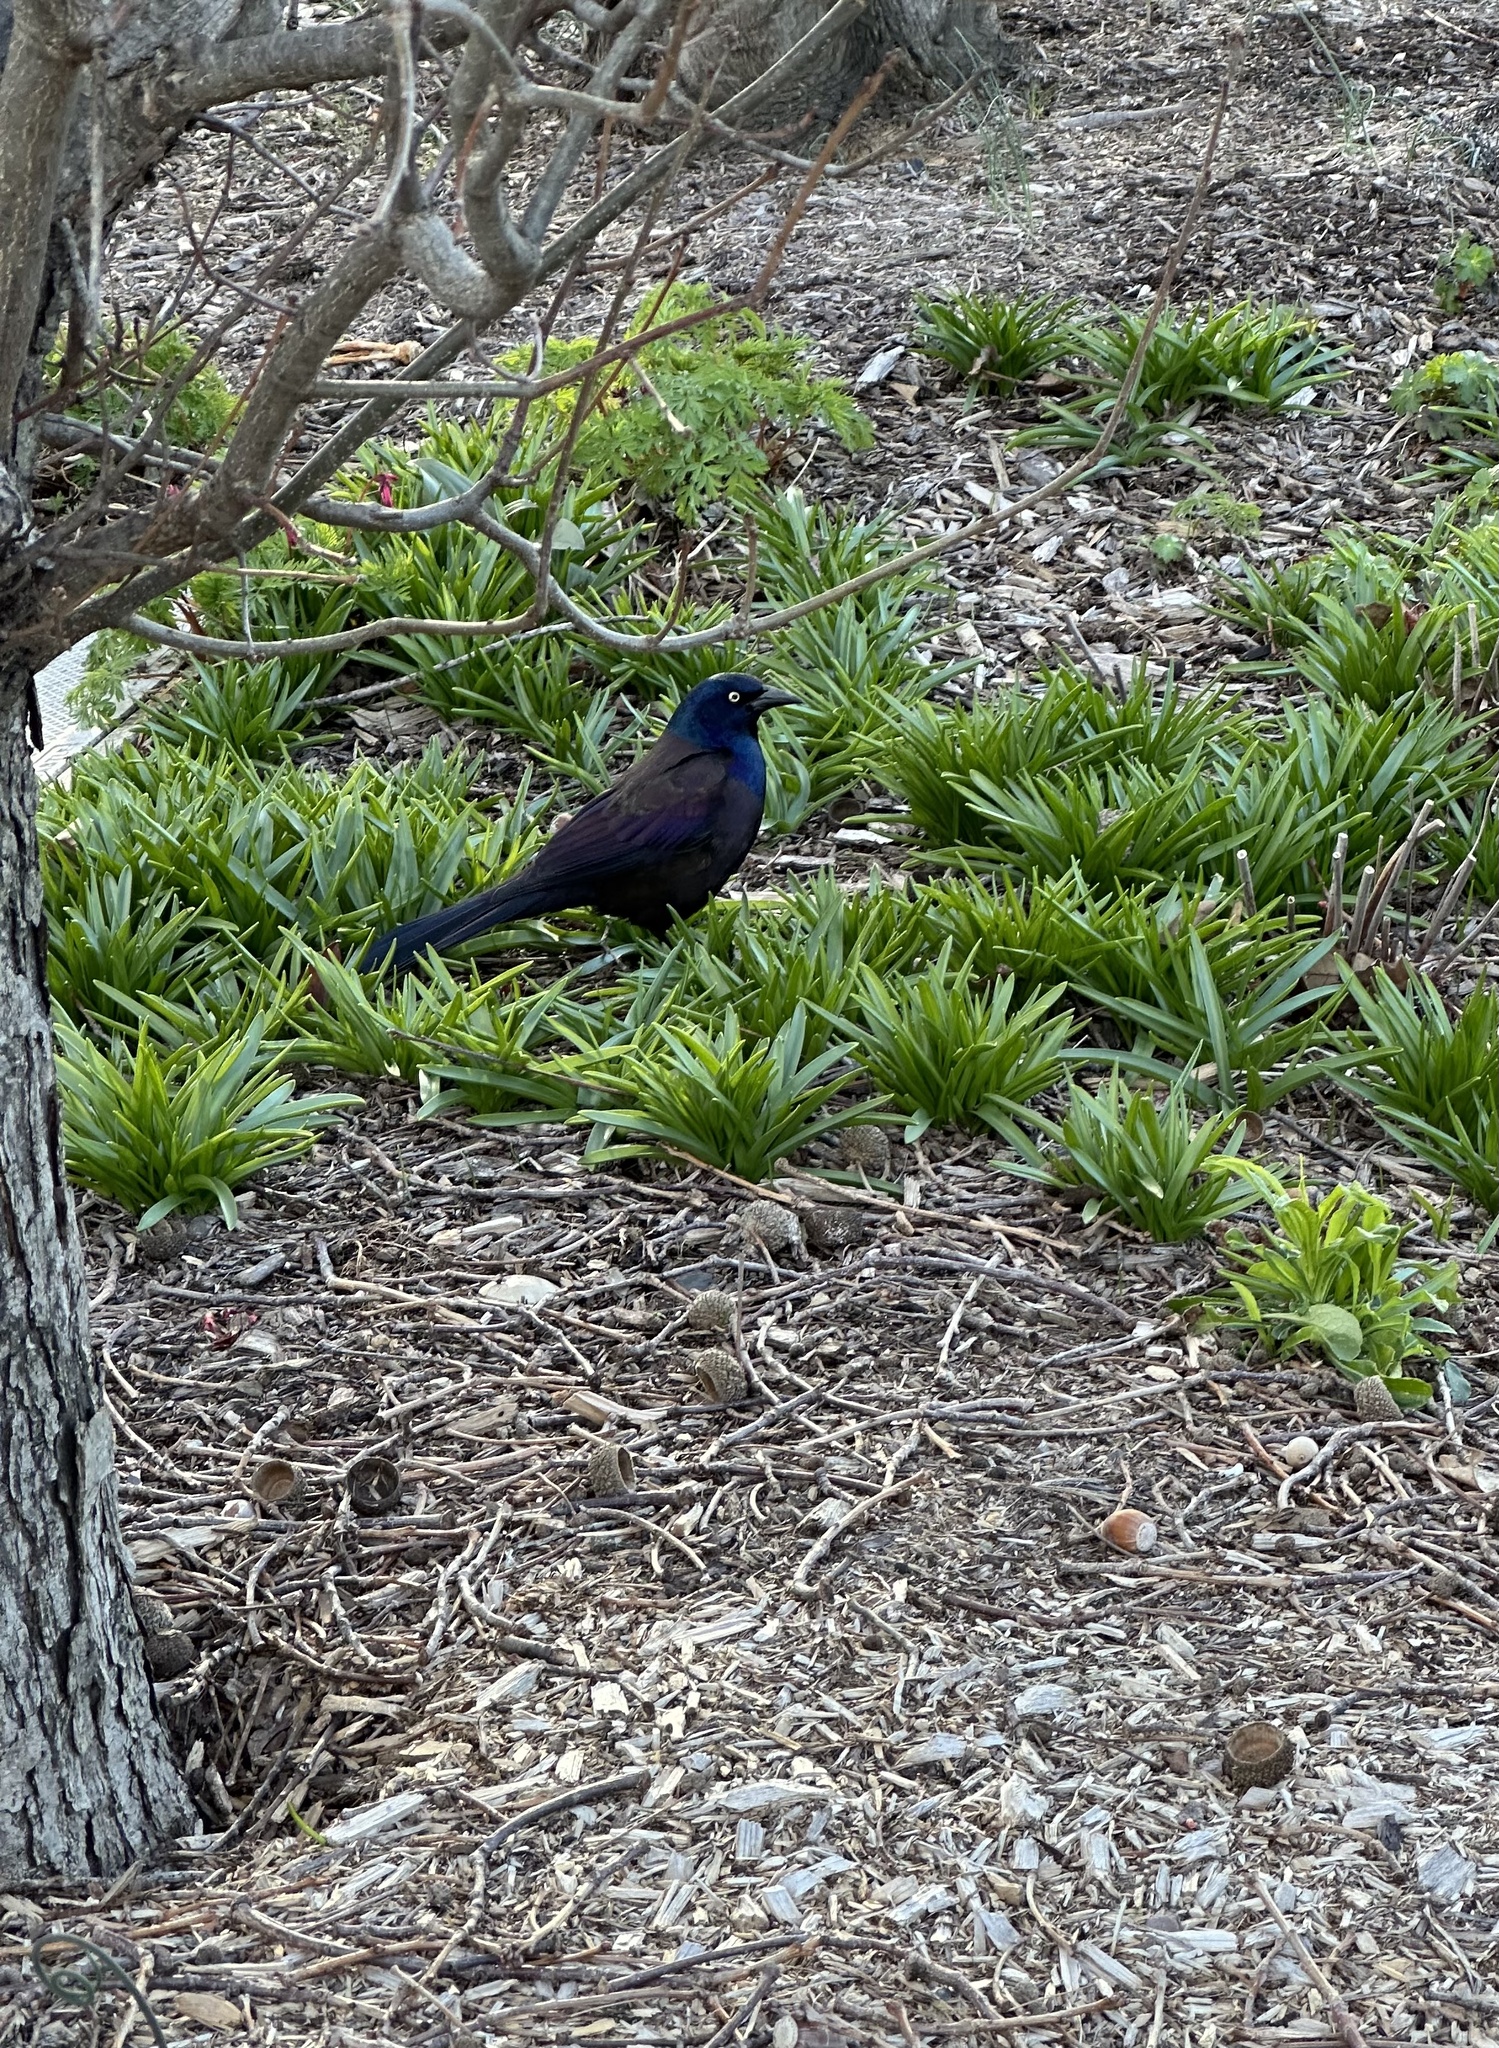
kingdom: Animalia
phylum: Chordata
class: Aves
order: Passeriformes
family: Icteridae
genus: Quiscalus
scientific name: Quiscalus quiscula
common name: Common grackle
